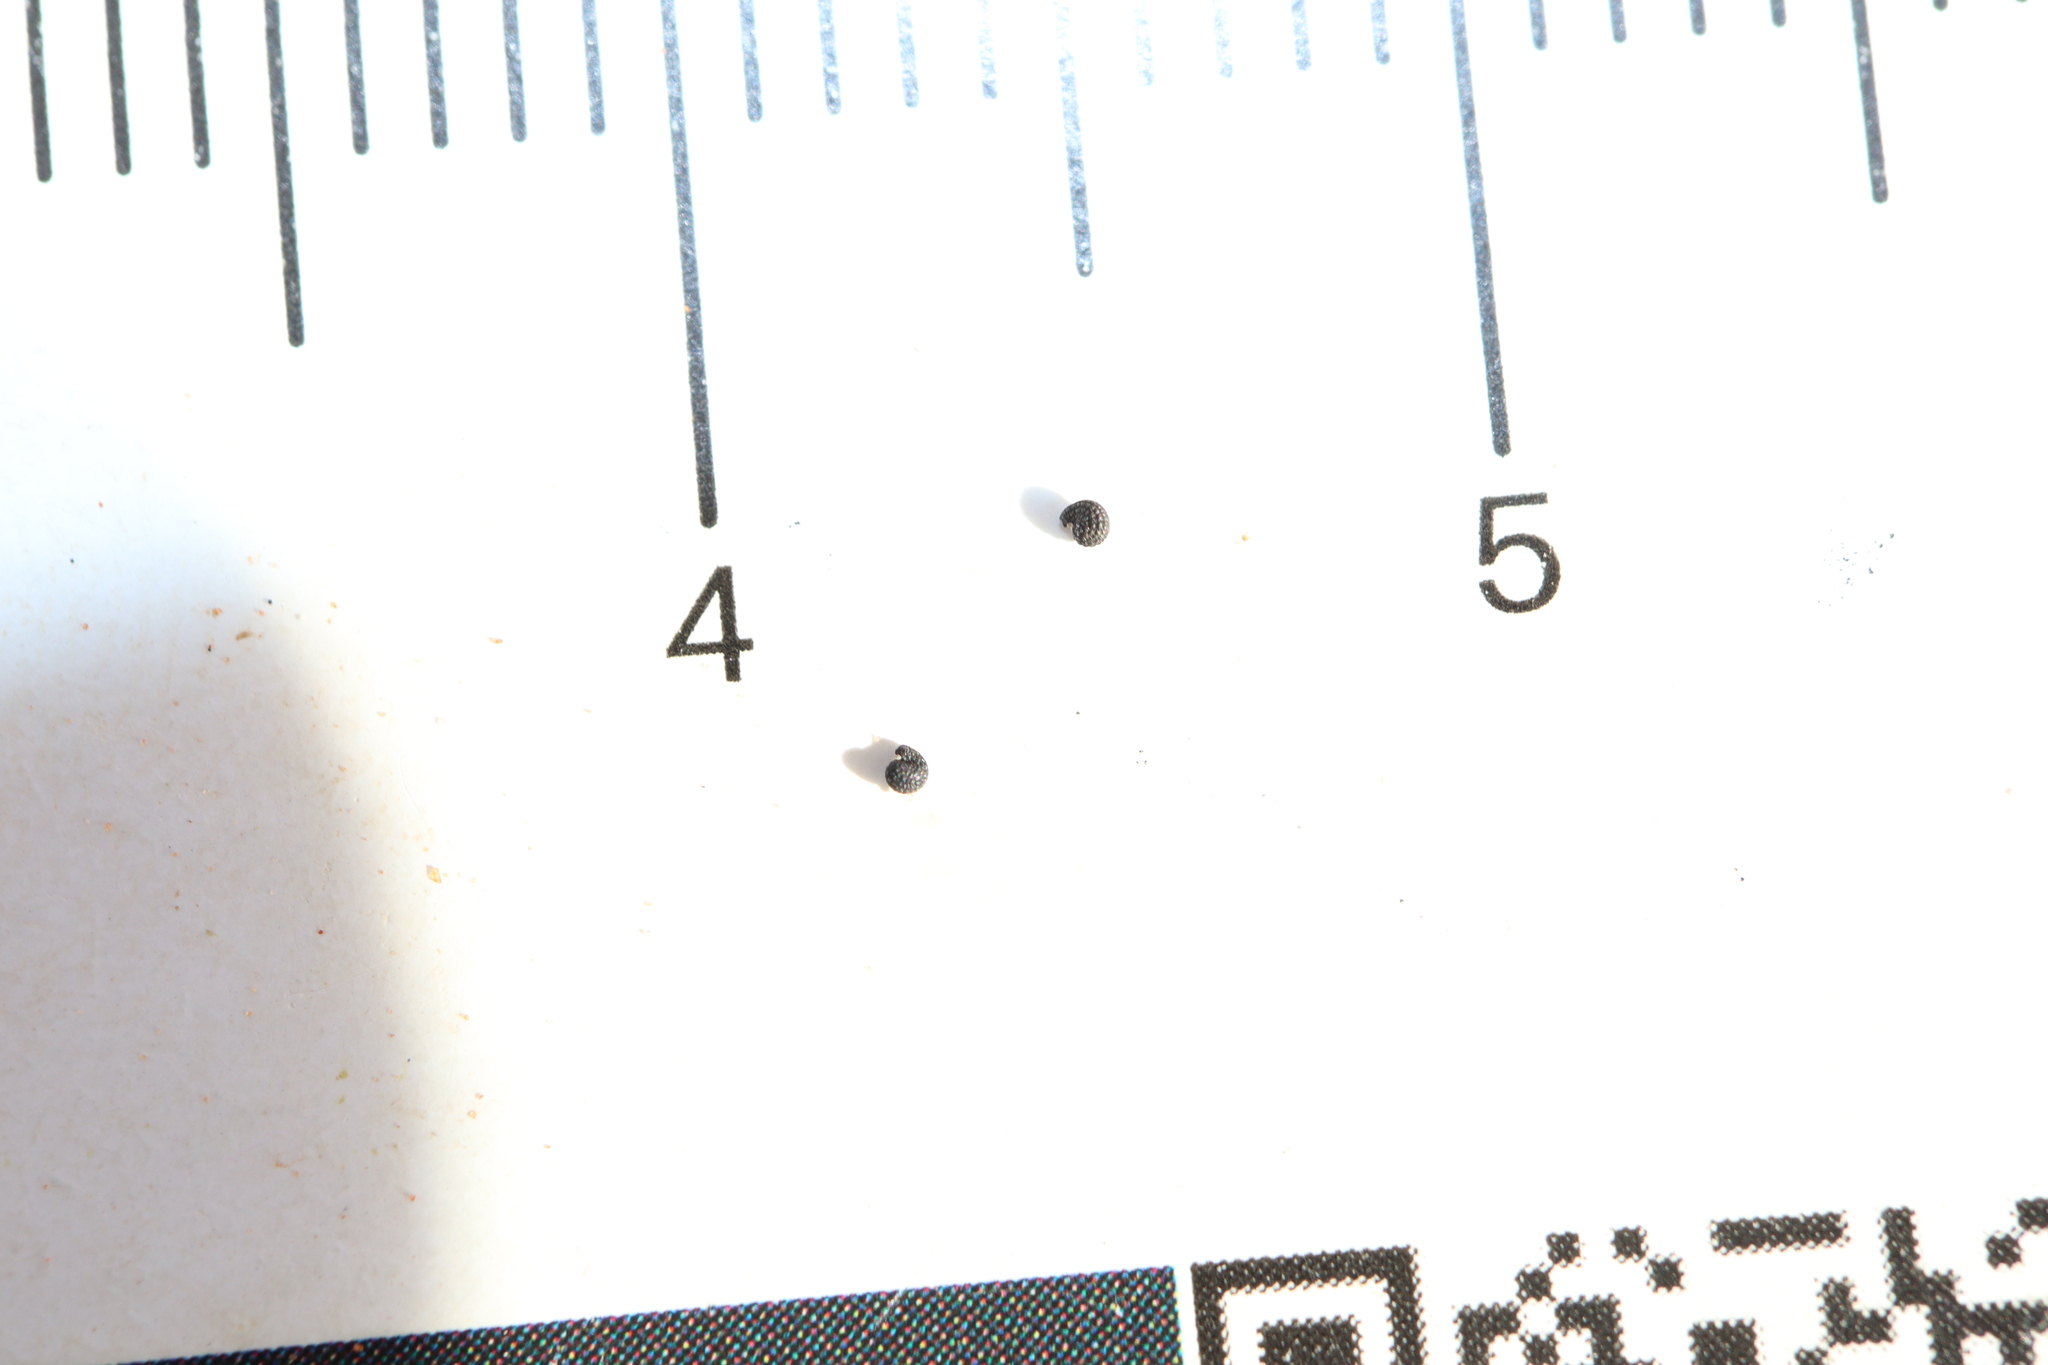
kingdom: Plantae
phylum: Tracheophyta
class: Magnoliopsida
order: Caryophyllales
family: Portulacaceae
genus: Portulaca
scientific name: Portulaca oleracea
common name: Common purslane
